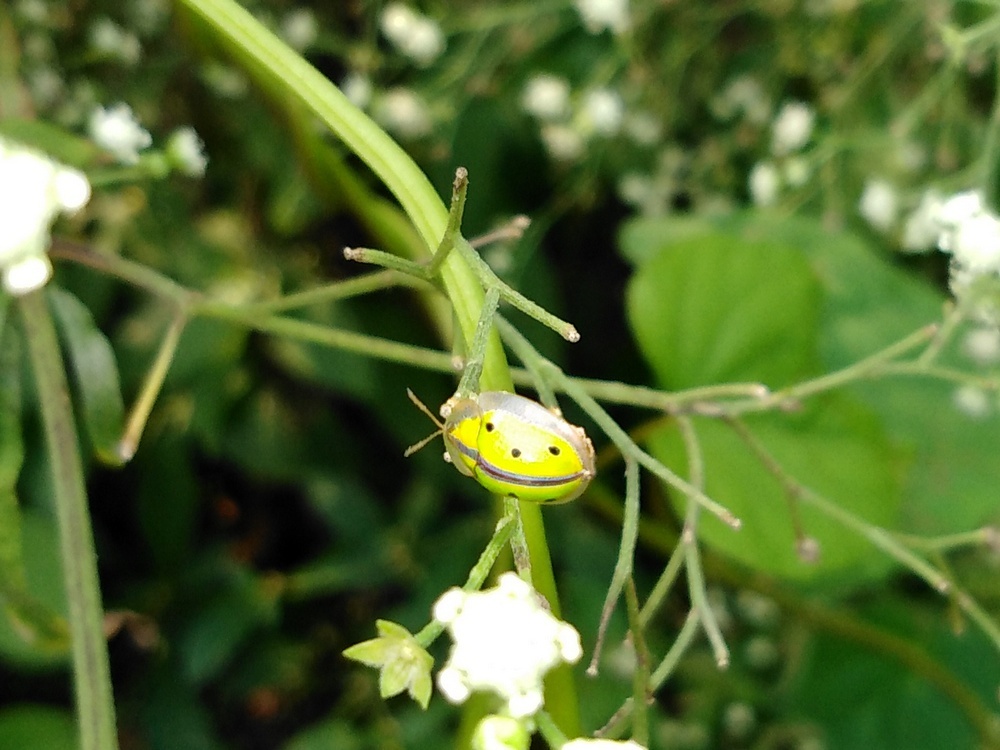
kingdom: Animalia
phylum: Arthropoda
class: Insecta
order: Coleoptera
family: Chrysomelidae
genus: Chiridopsis
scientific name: Chiridopsis bipunctata
